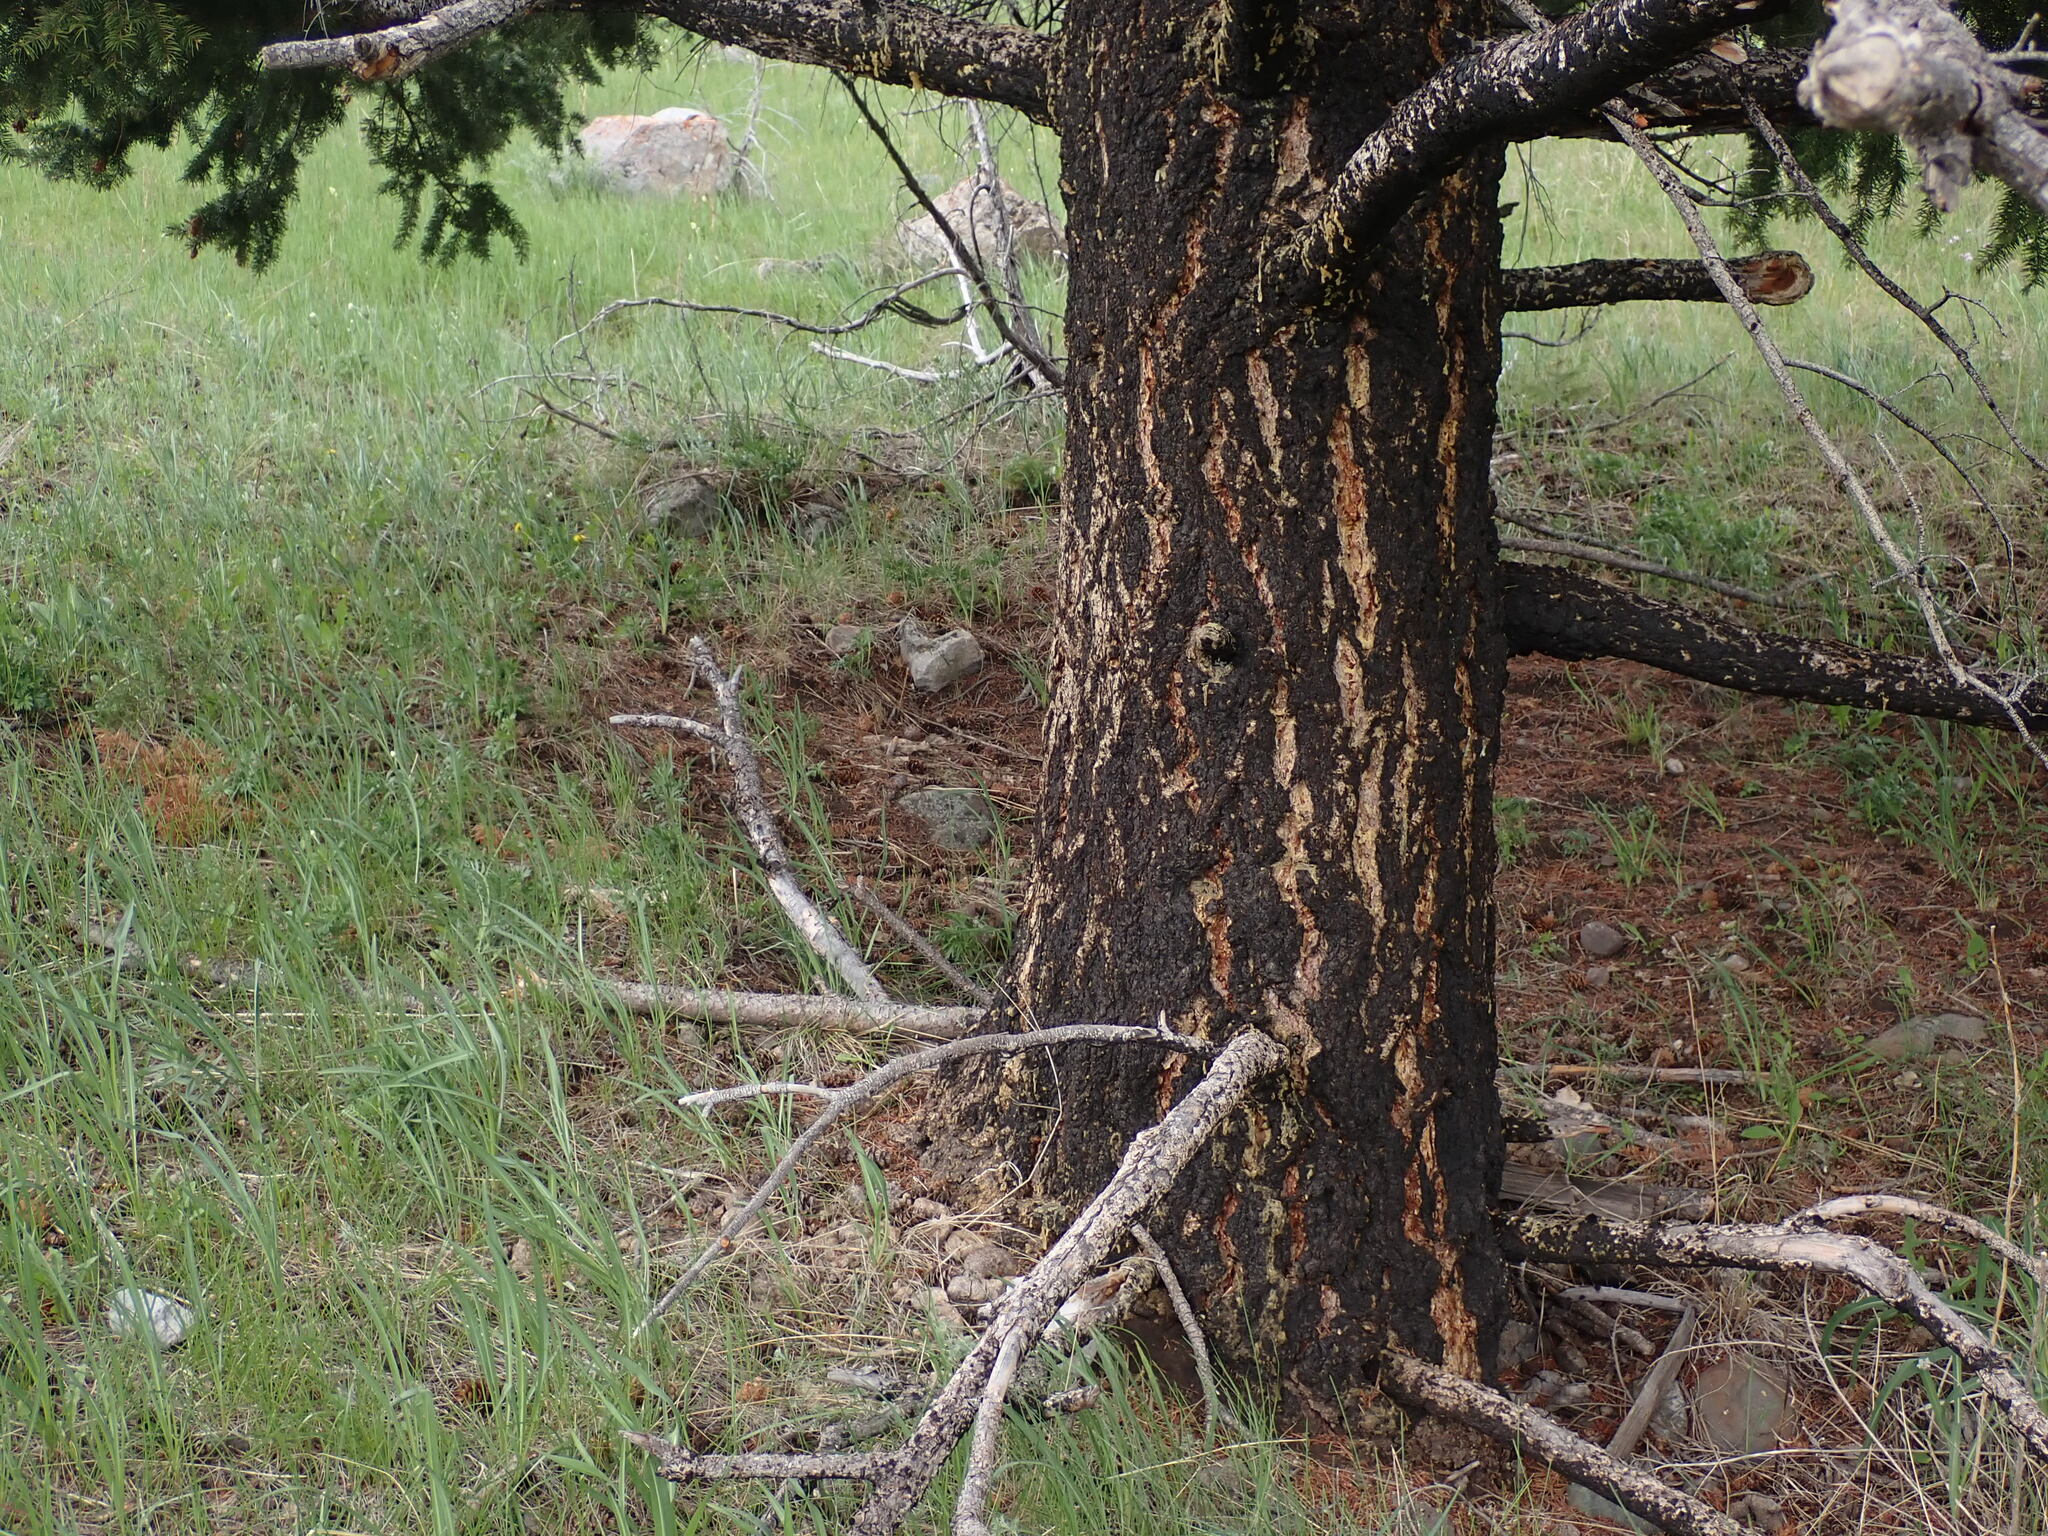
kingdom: Plantae
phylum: Tracheophyta
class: Pinopsida
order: Pinales
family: Pinaceae
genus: Pseudotsuga
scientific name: Pseudotsuga menziesii
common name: Douglas fir
